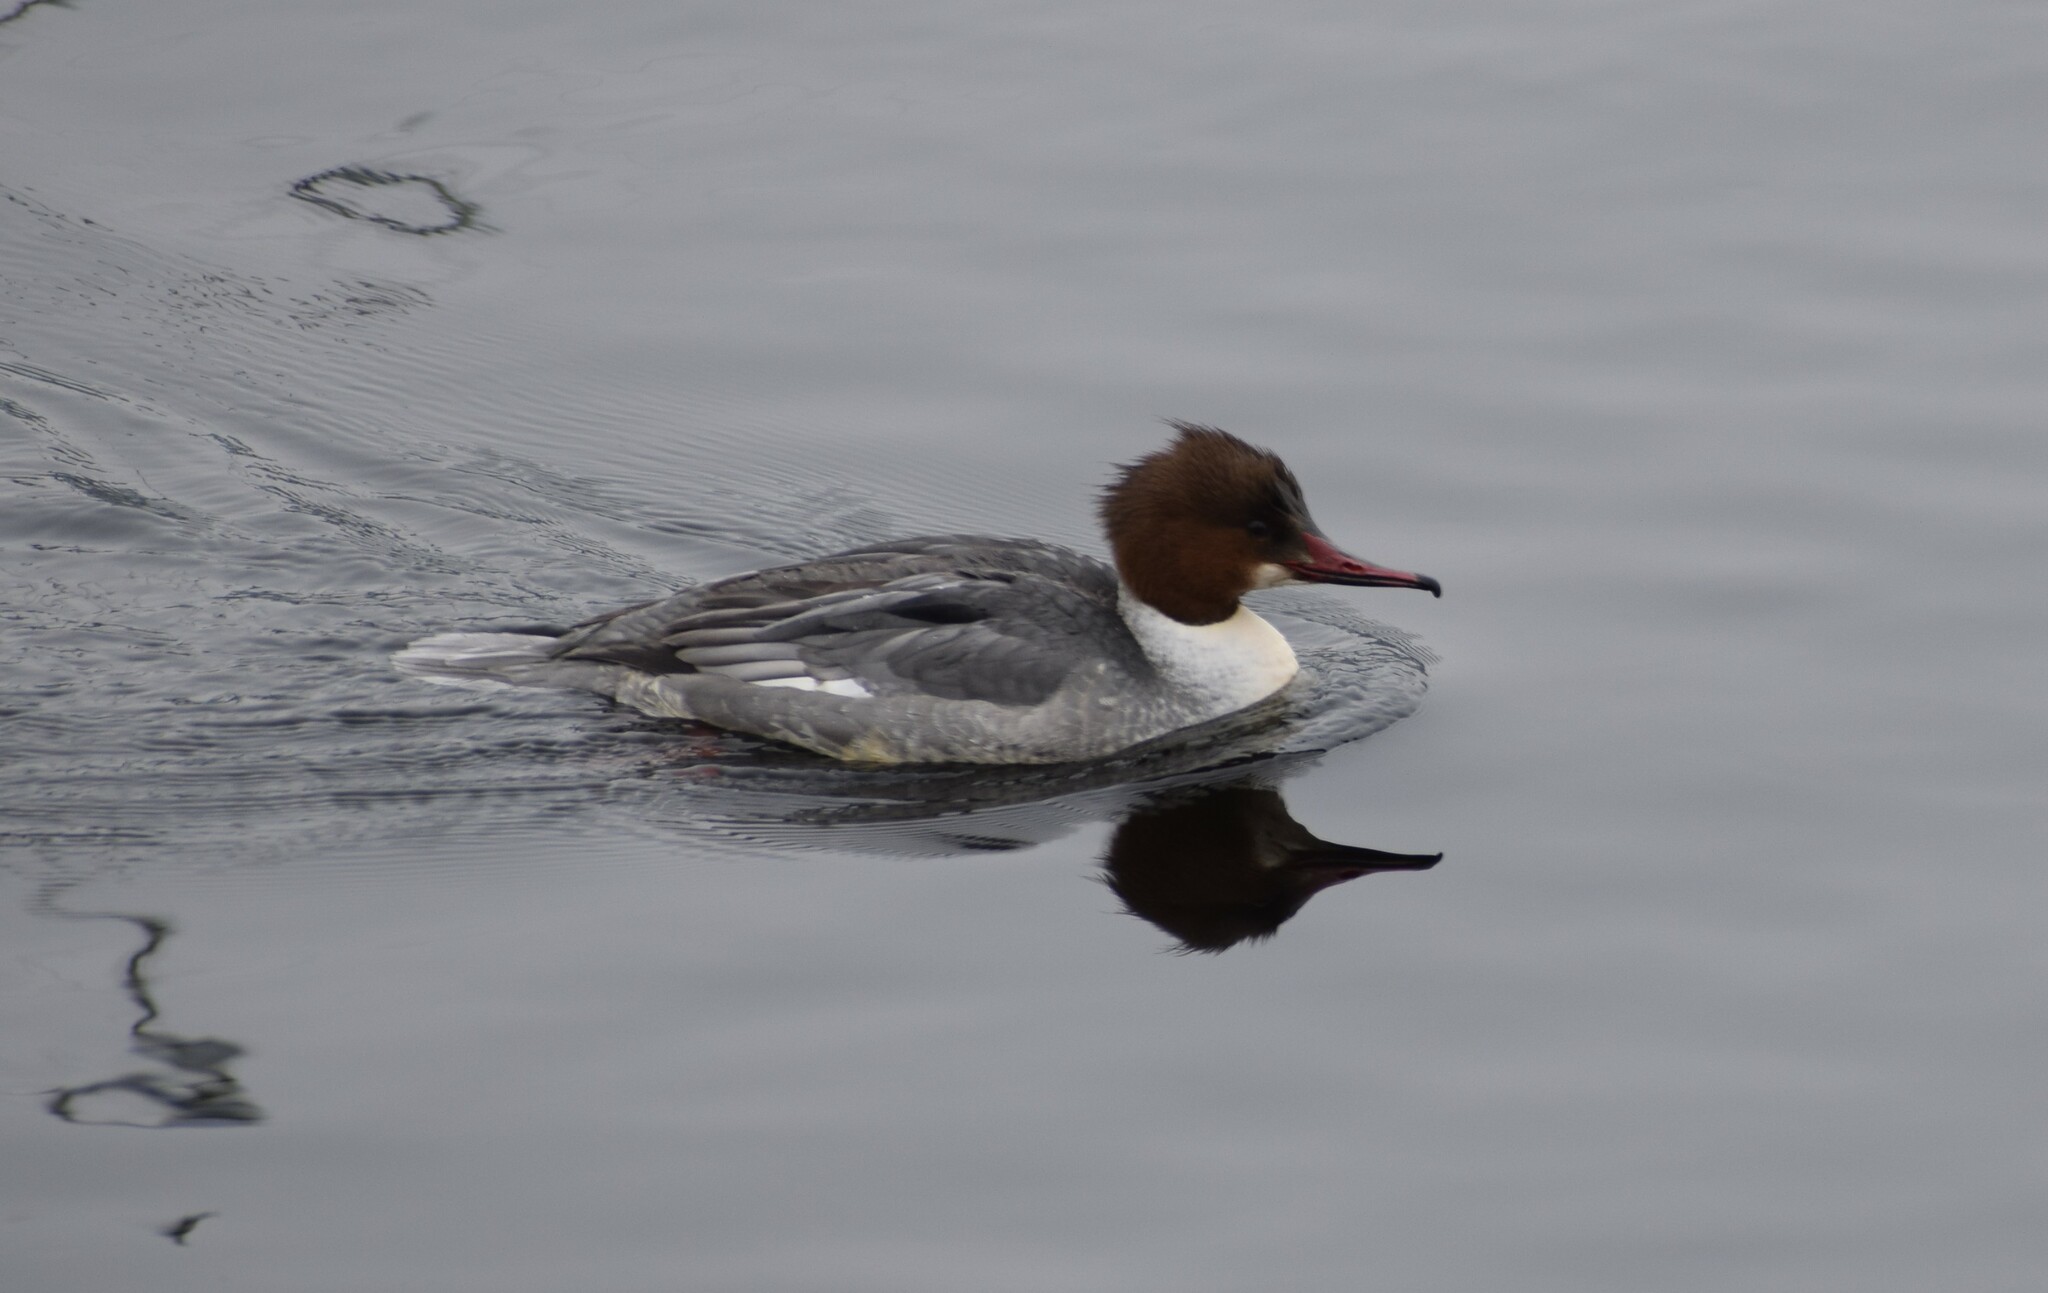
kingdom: Animalia
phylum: Chordata
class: Aves
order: Anseriformes
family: Anatidae
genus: Mergus
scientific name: Mergus merganser
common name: Common merganser
